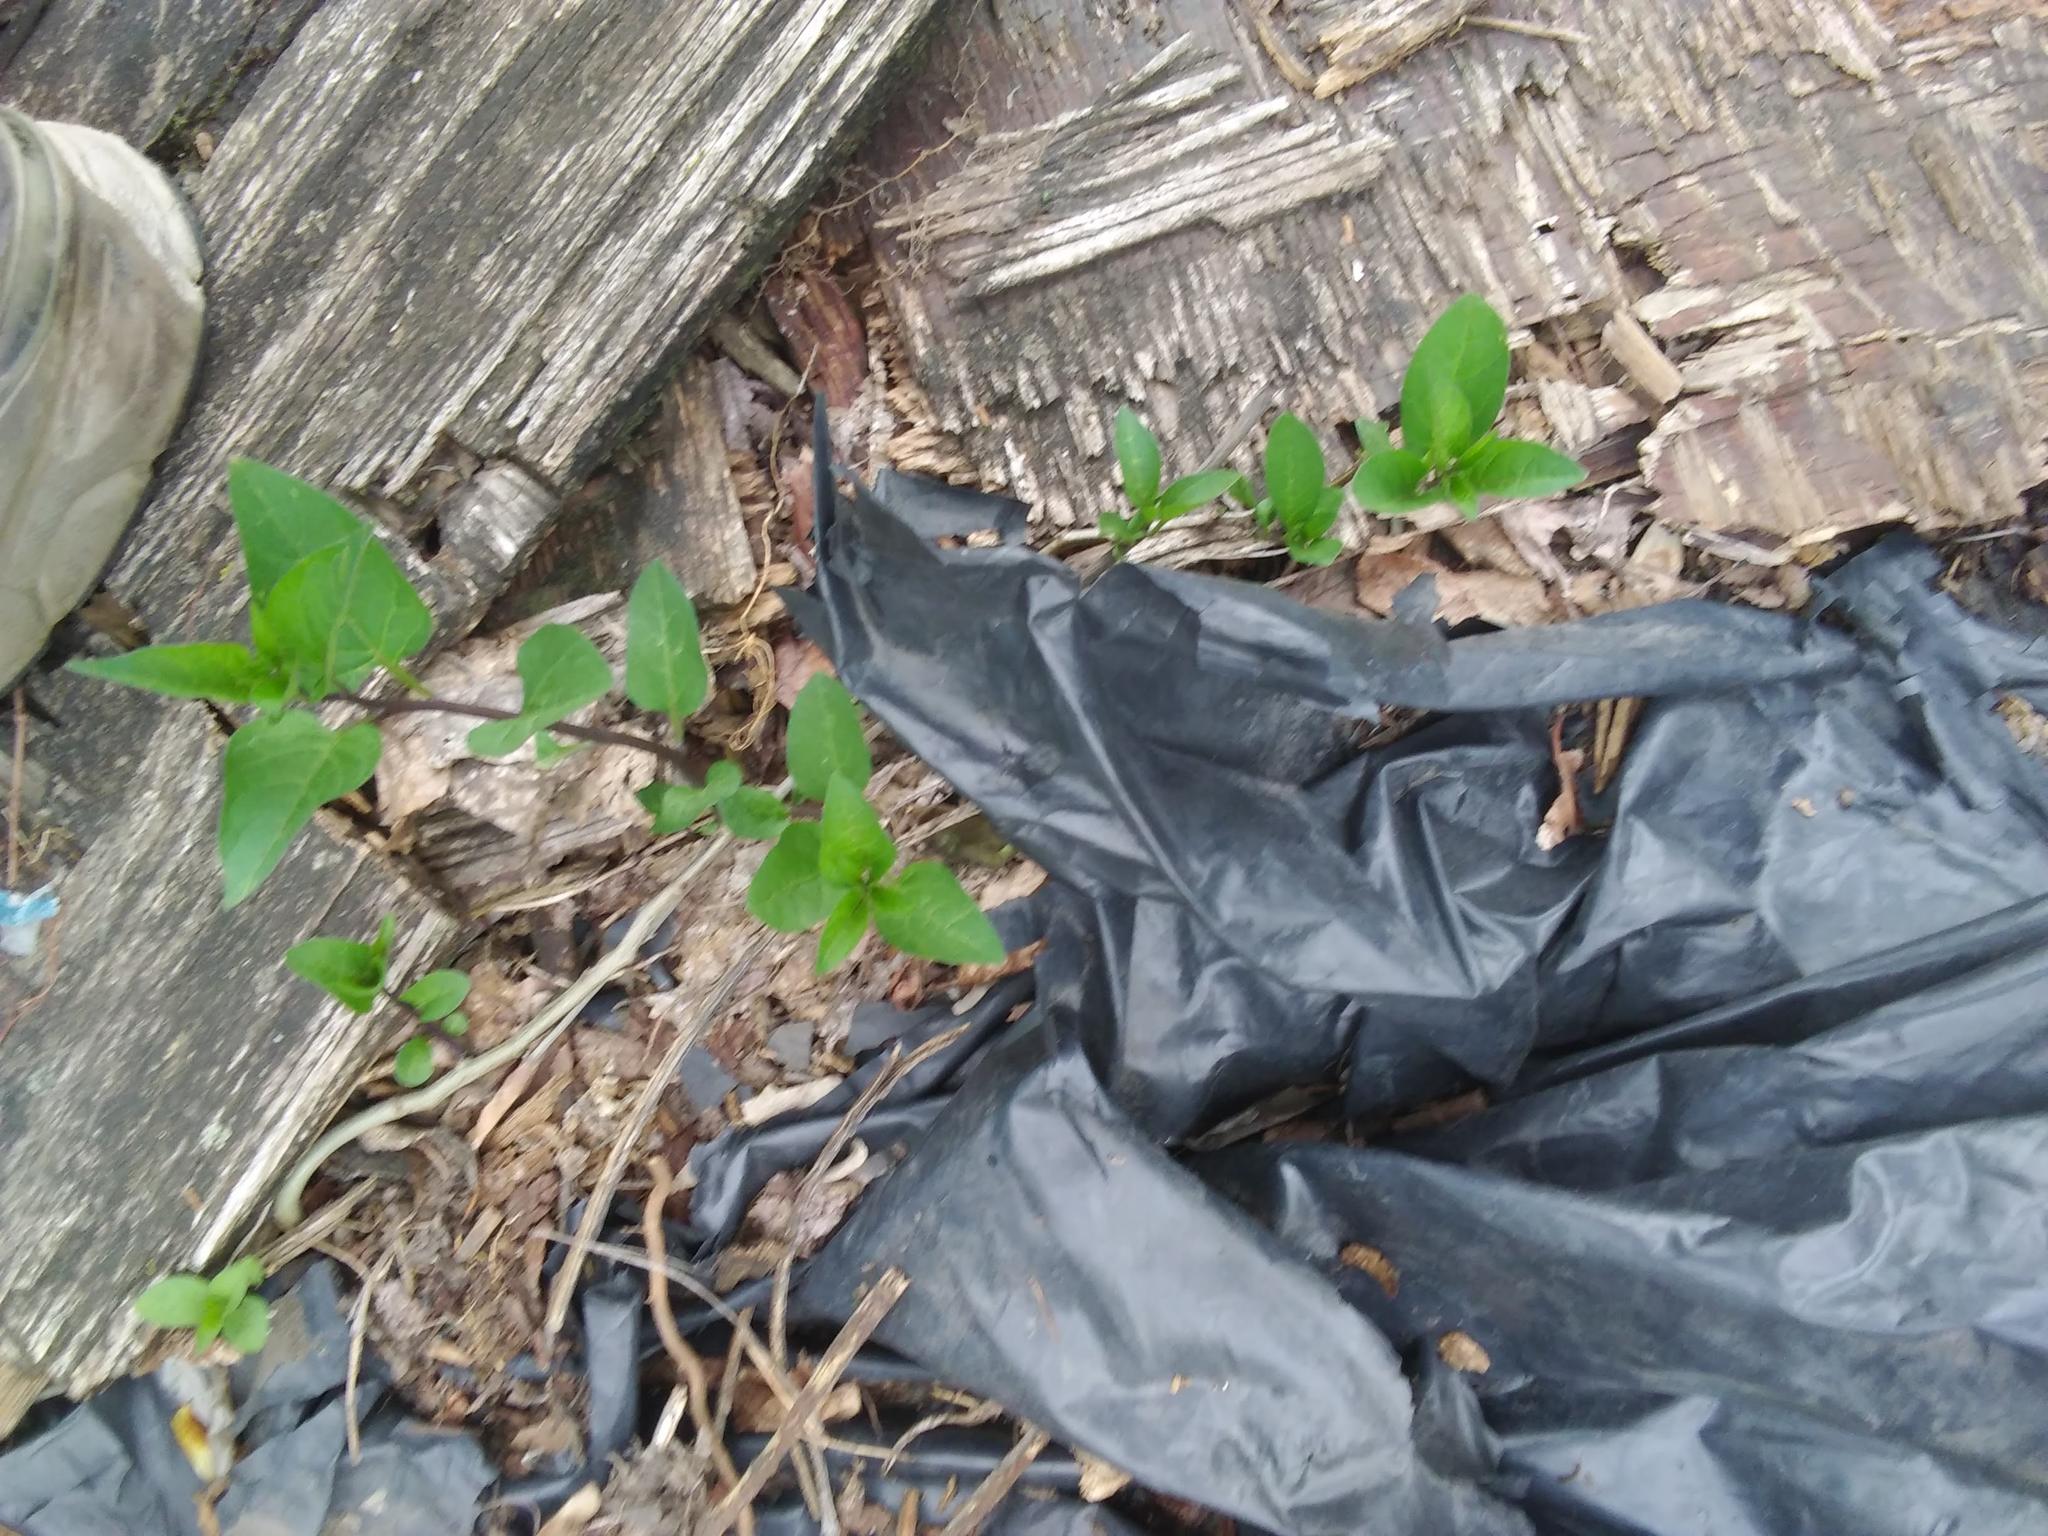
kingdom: Plantae
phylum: Tracheophyta
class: Magnoliopsida
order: Solanales
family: Solanaceae
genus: Solanum
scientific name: Solanum dulcamara
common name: Climbing nightshade
